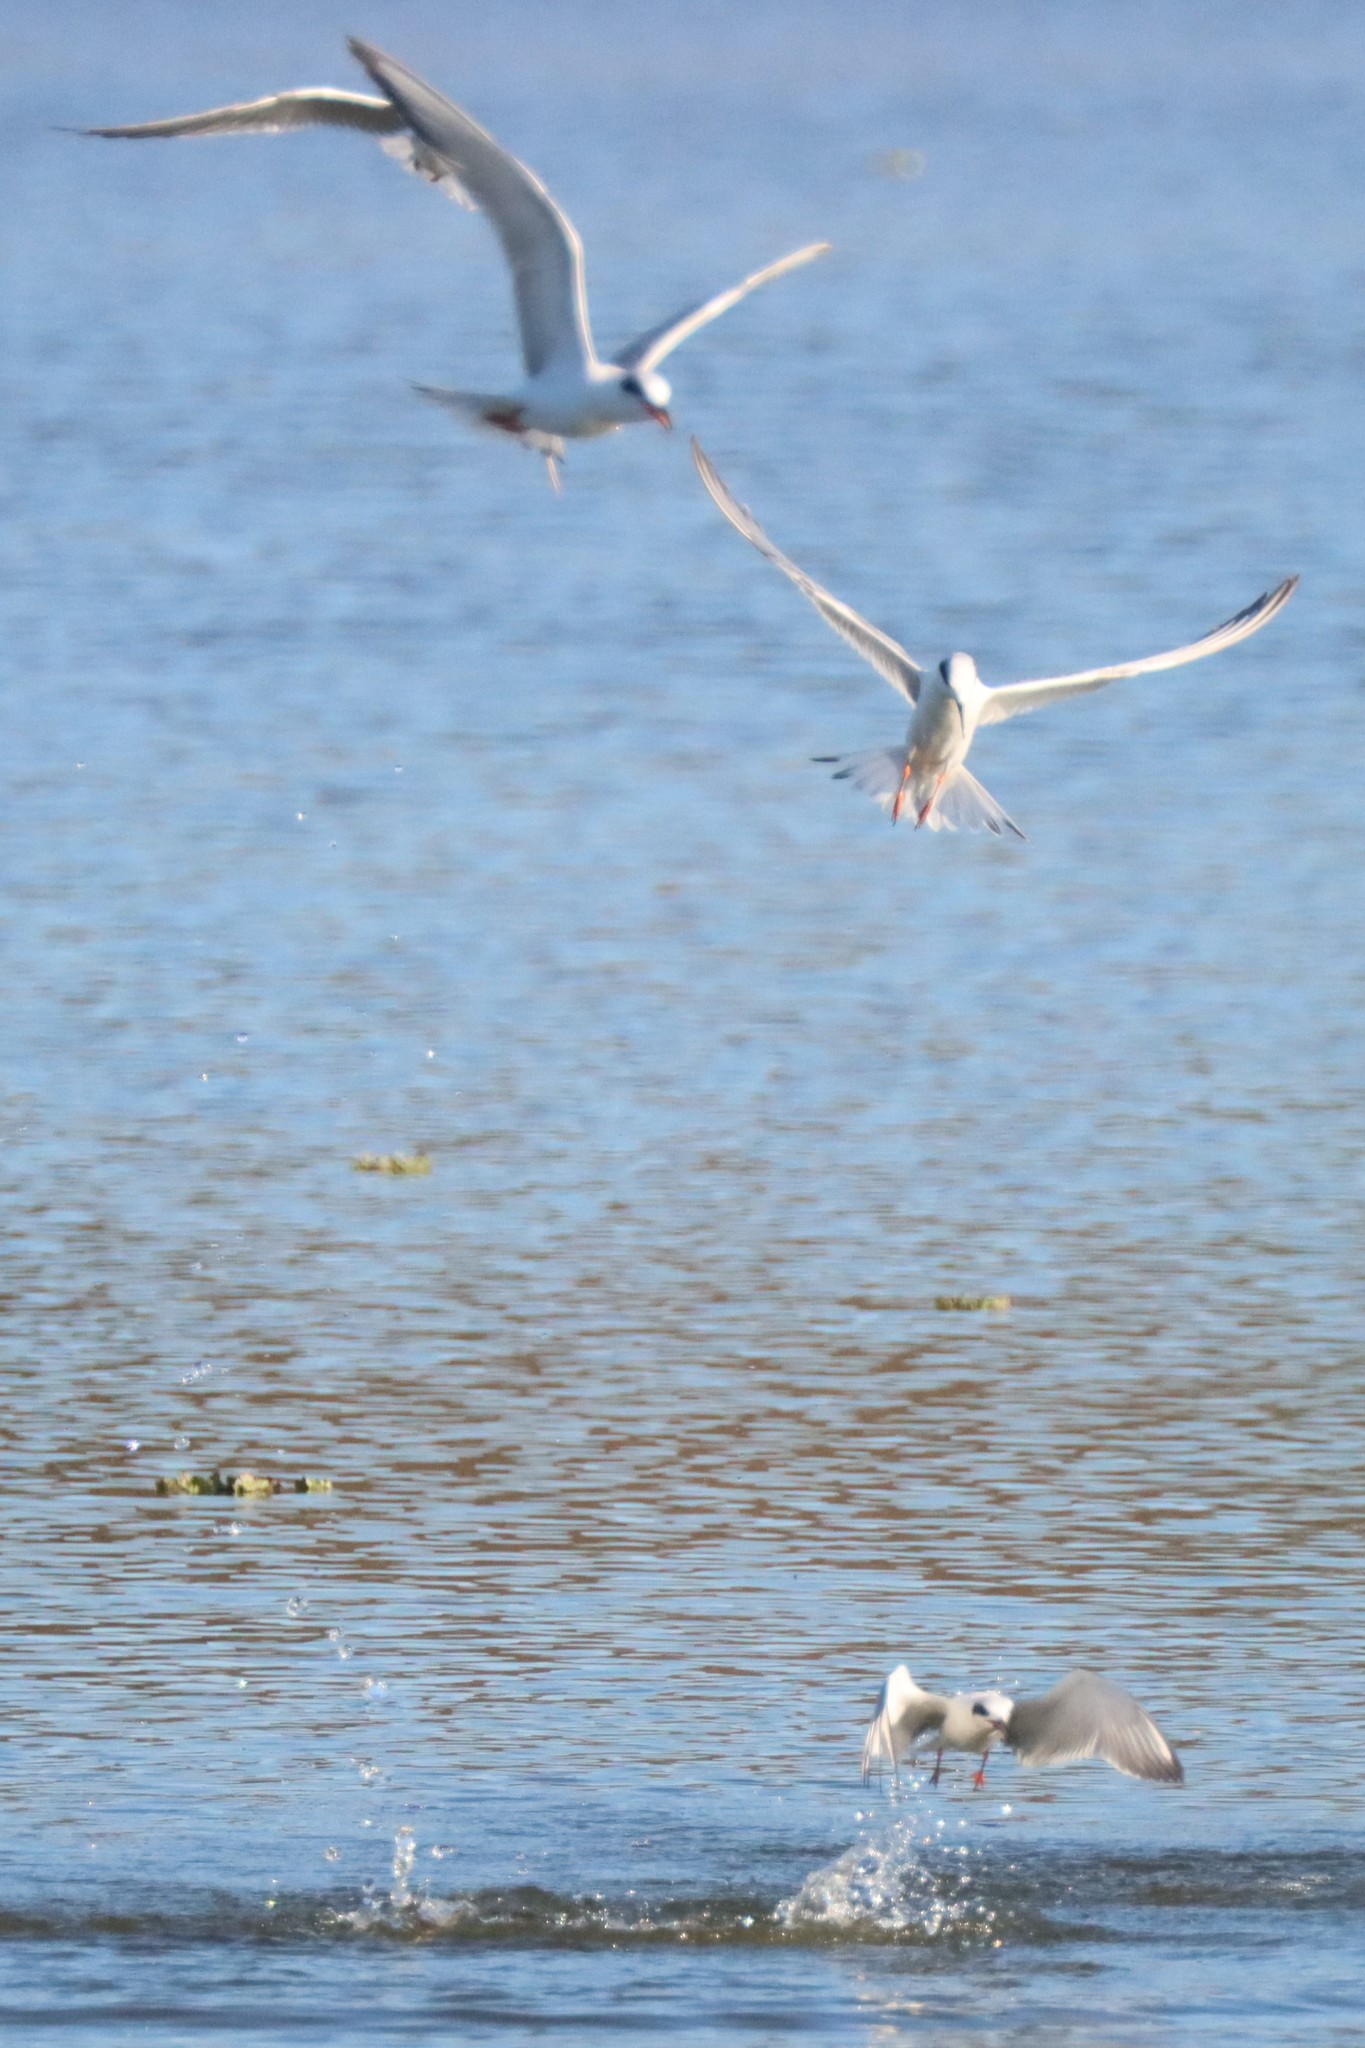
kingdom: Animalia
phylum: Chordata
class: Aves
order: Charadriiformes
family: Laridae
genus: Sterna
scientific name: Sterna forsteri
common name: Forster's tern
